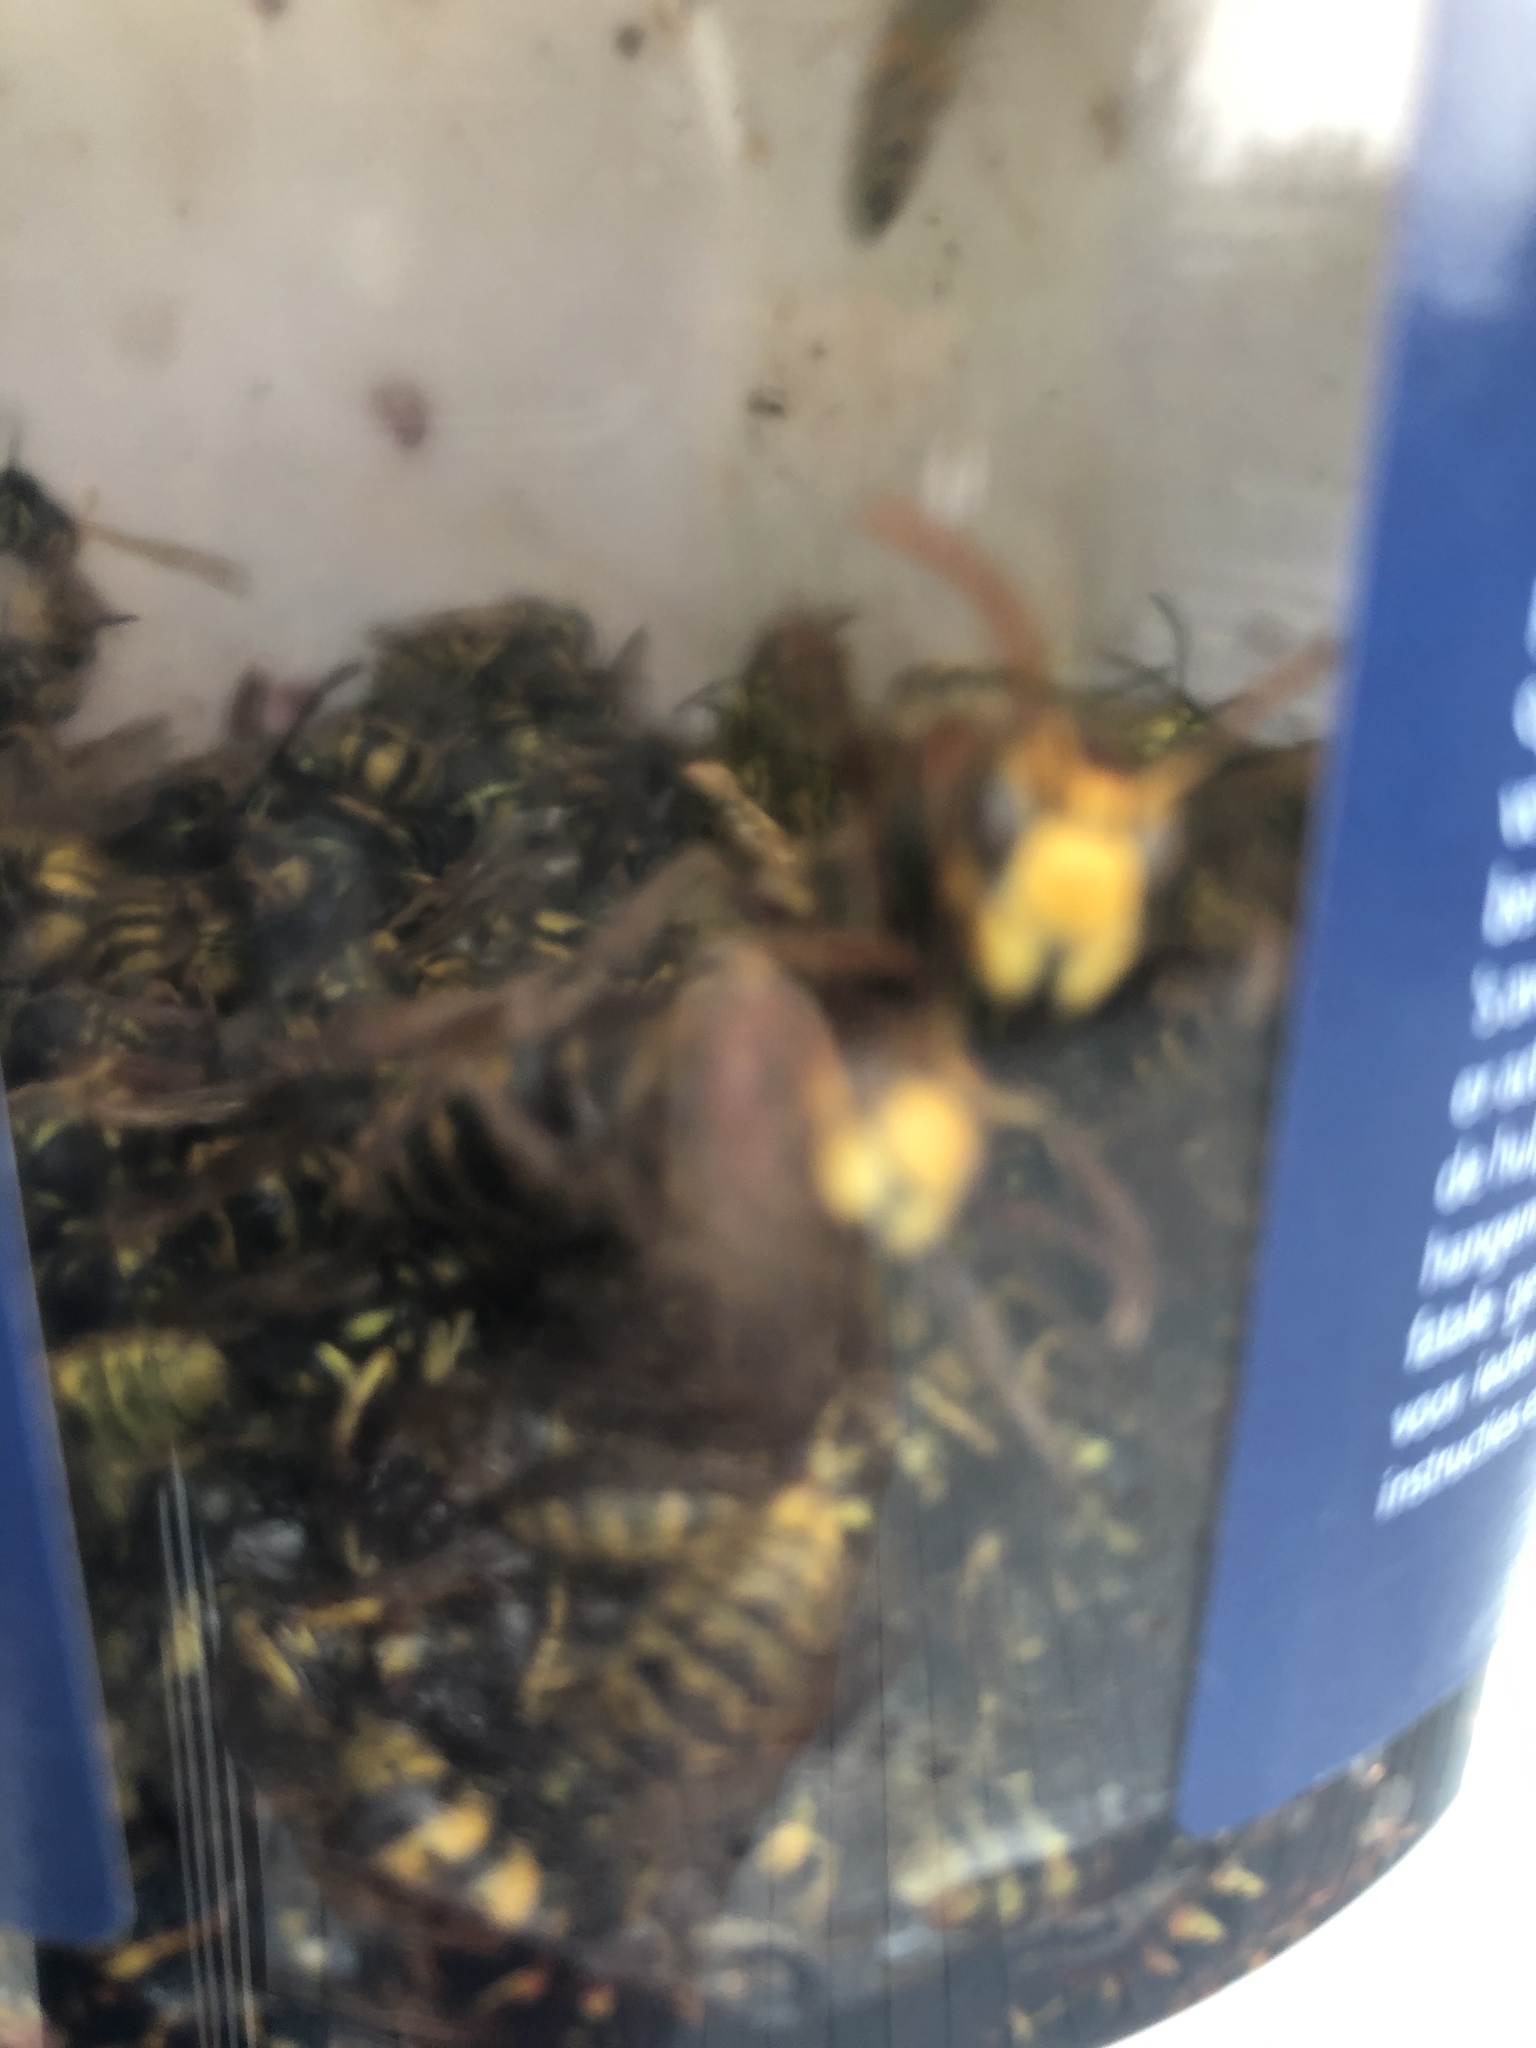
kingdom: Animalia
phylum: Arthropoda
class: Insecta
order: Hymenoptera
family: Vespidae
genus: Vespa
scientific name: Vespa crabro
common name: Hornet
